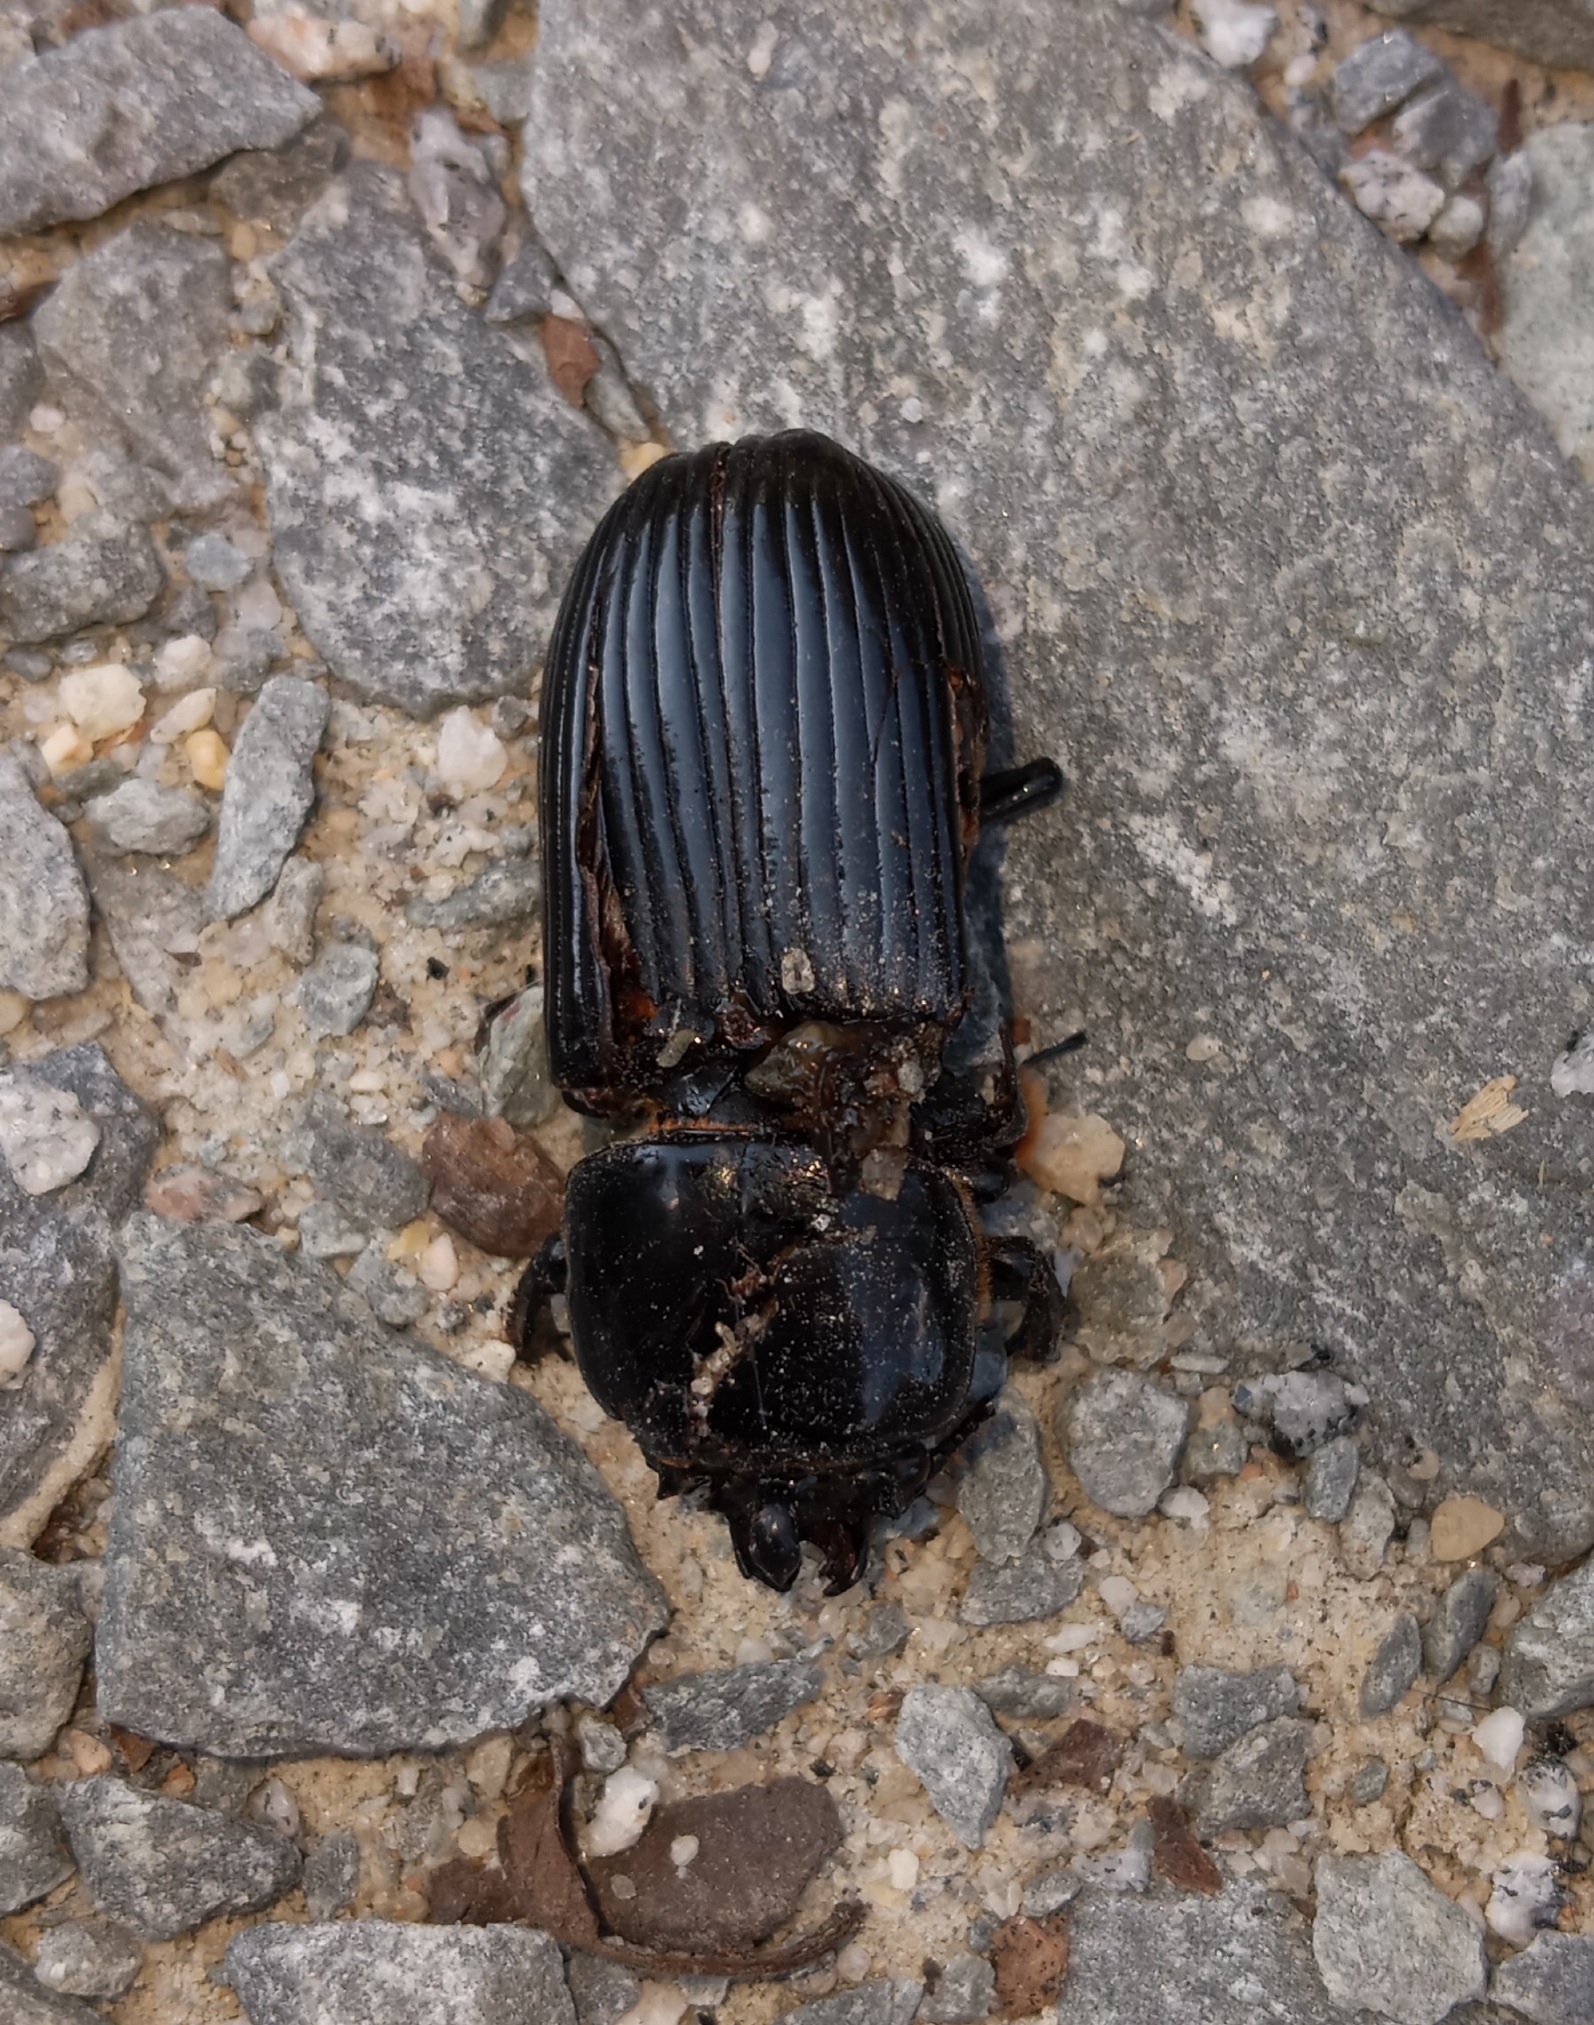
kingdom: Animalia
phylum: Arthropoda
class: Insecta
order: Coleoptera
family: Passalidae
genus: Odontotaenius
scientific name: Odontotaenius disjunctus
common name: Patent leather beetle
